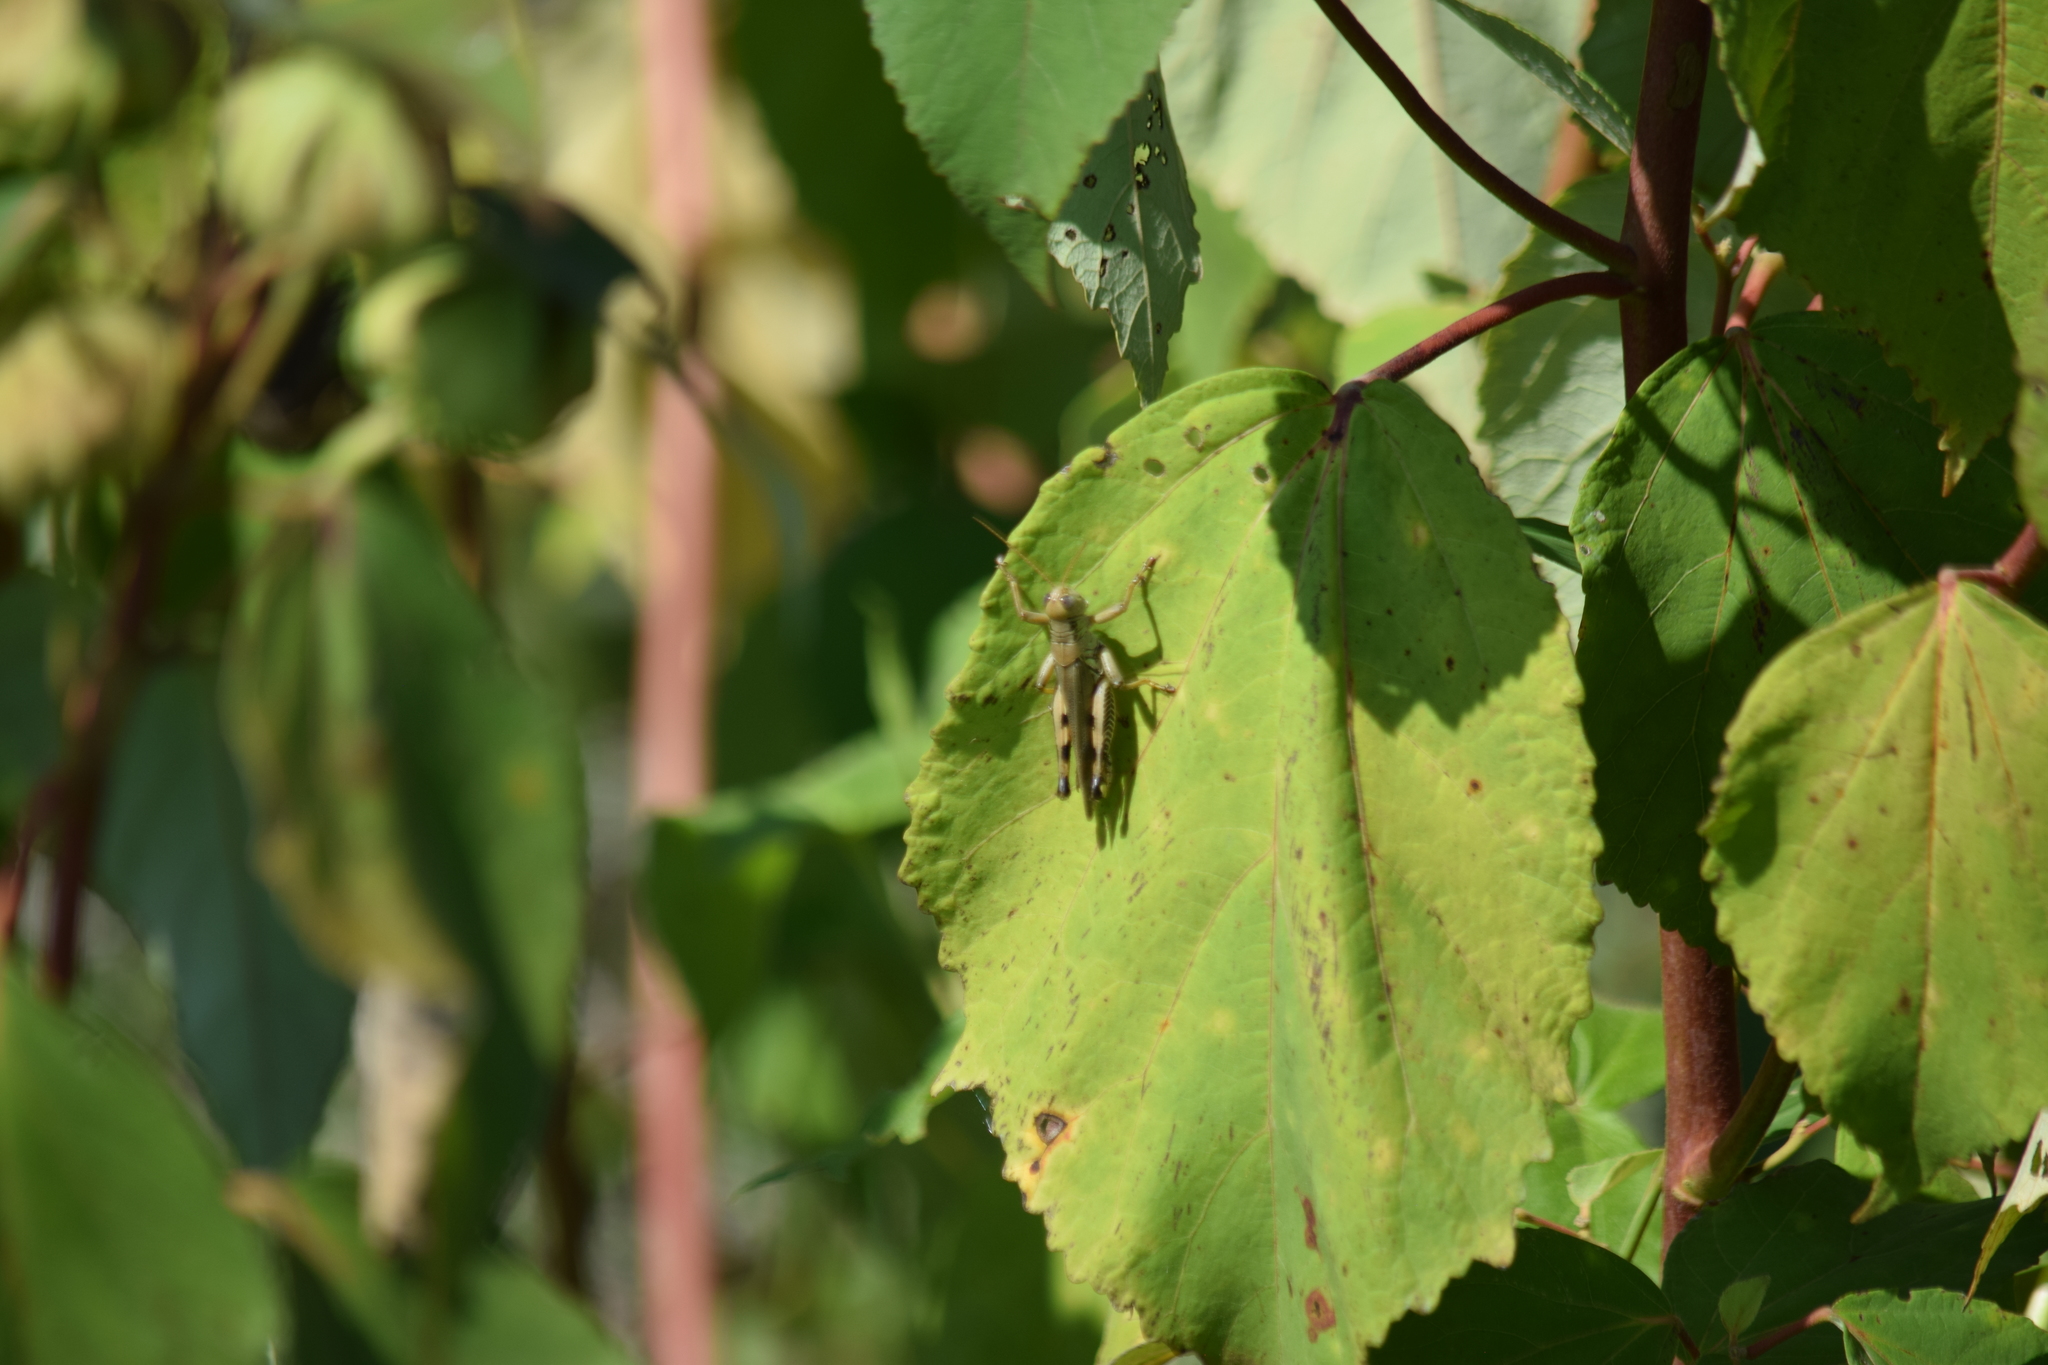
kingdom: Animalia
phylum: Arthropoda
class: Insecta
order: Orthoptera
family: Acrididae
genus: Melanoplus
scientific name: Melanoplus differentialis
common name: Differential grasshopper
